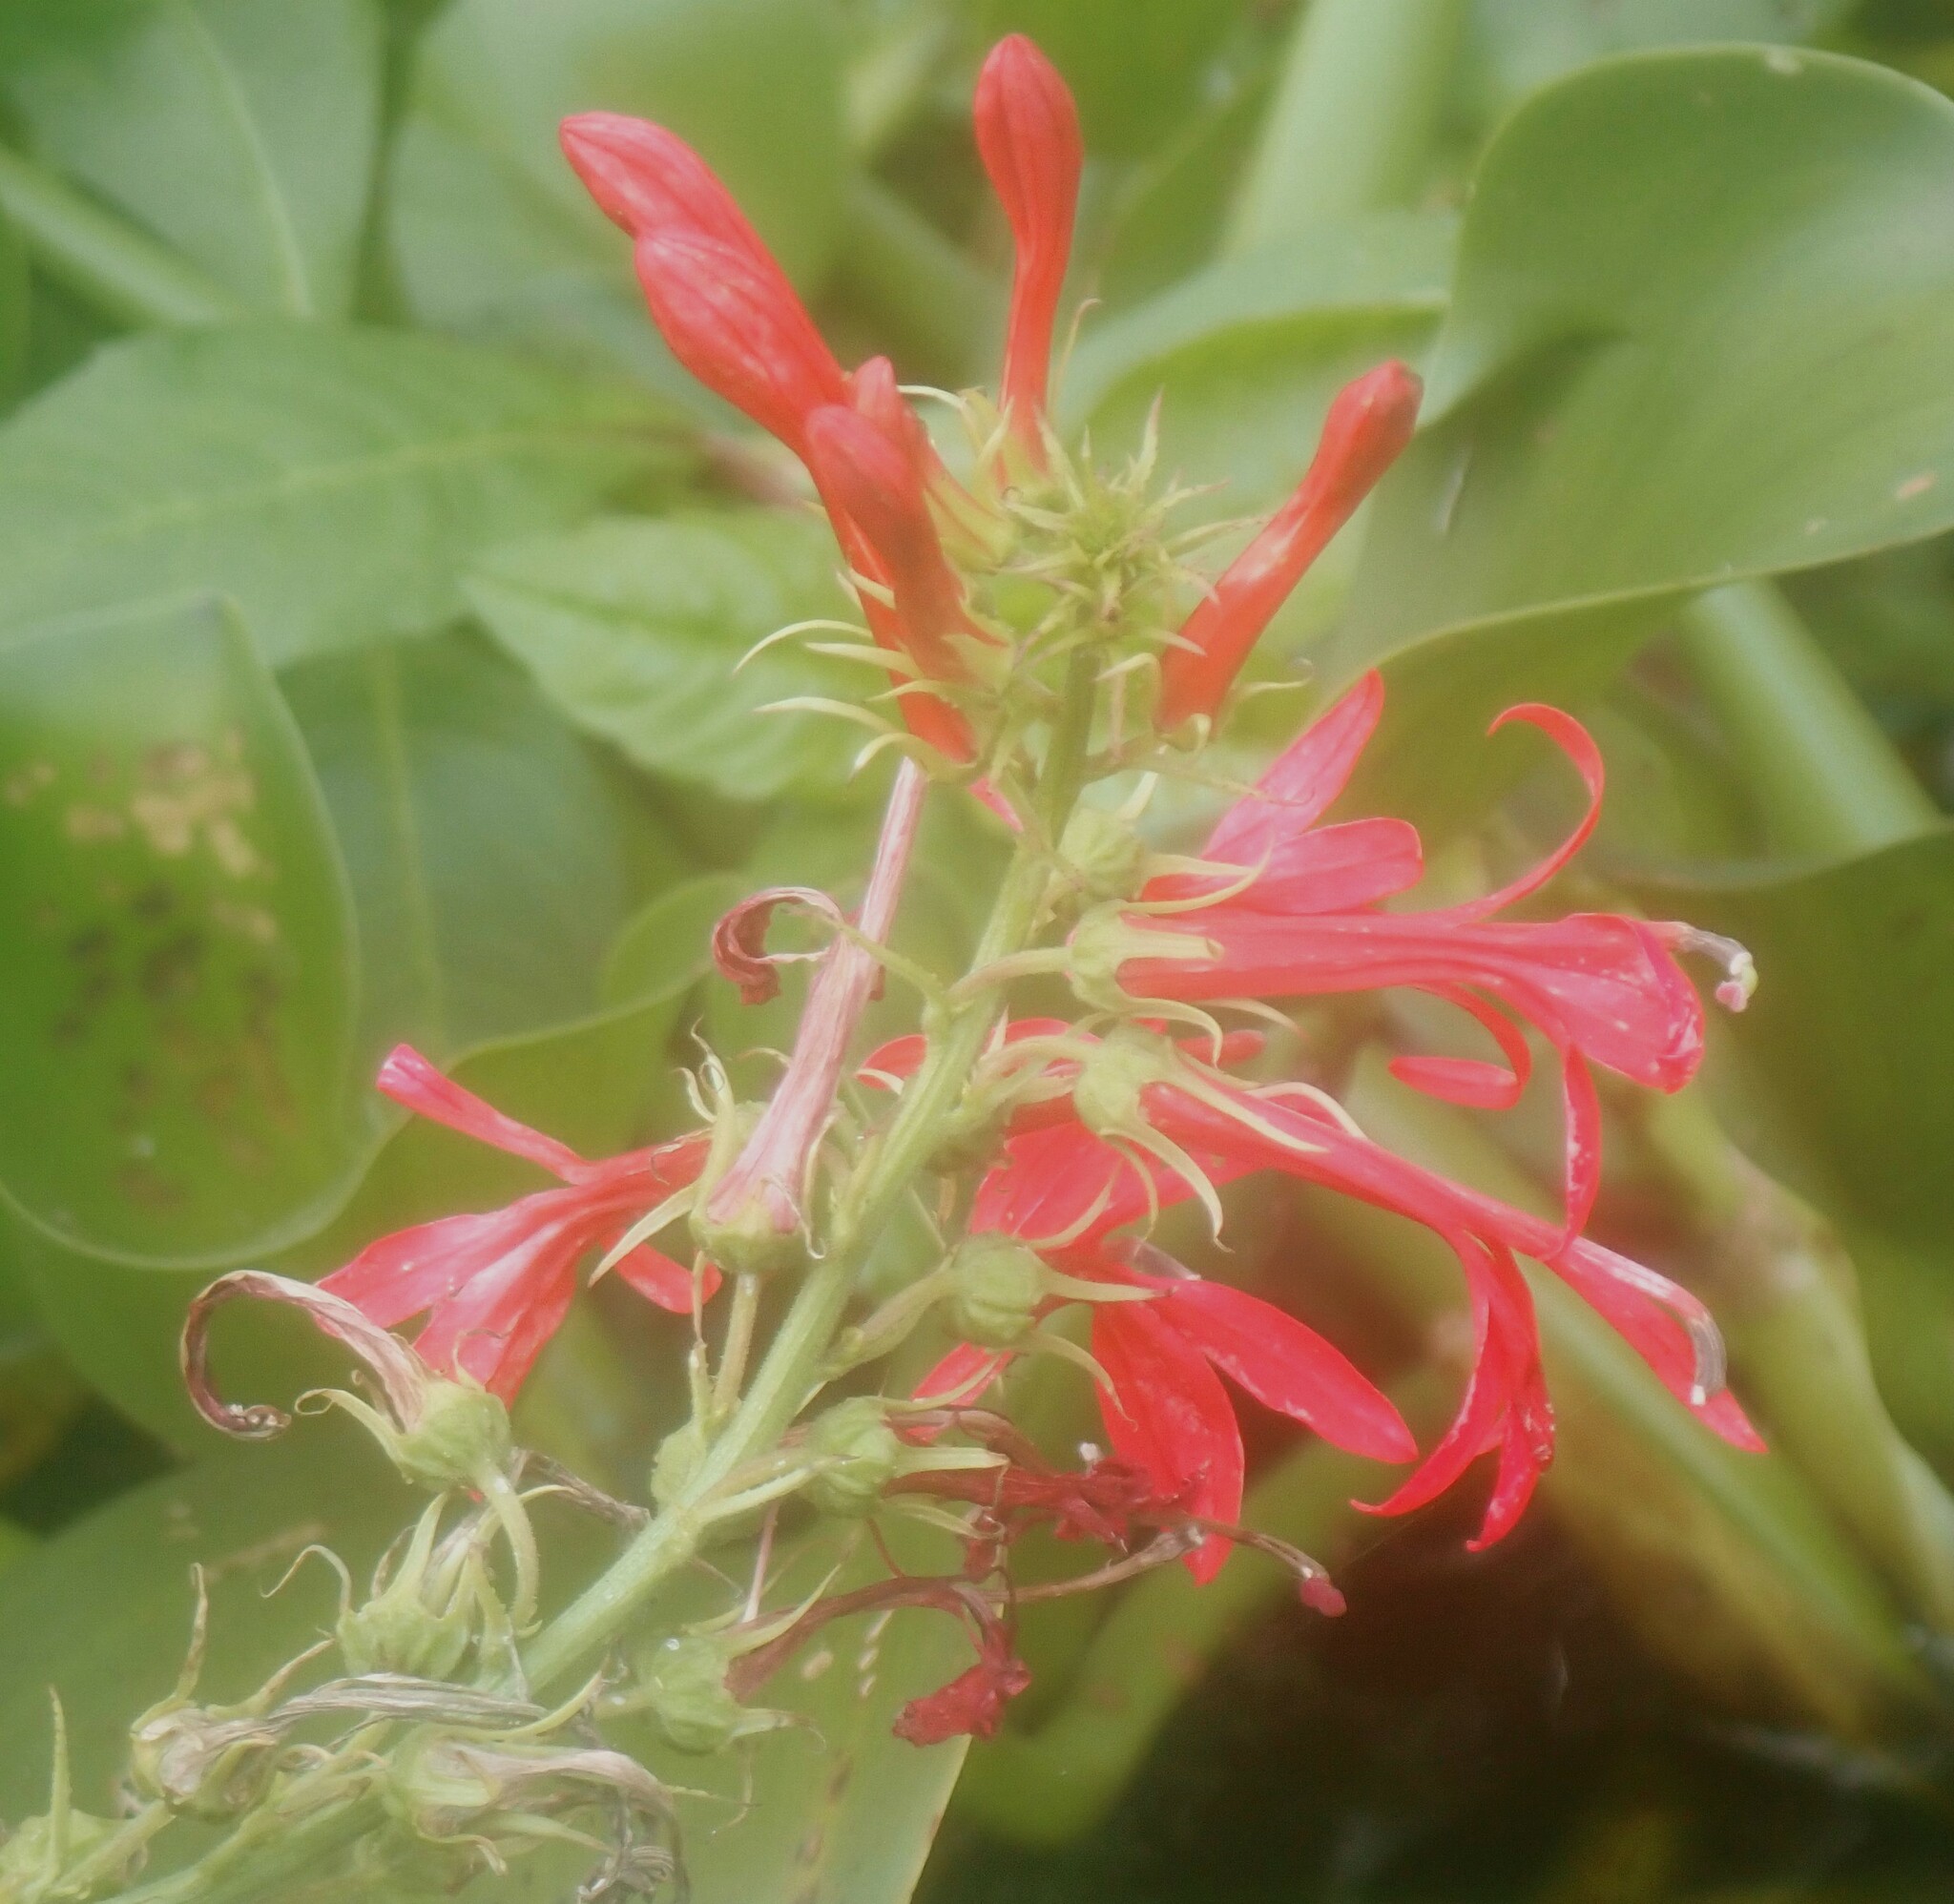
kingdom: Plantae
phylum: Tracheophyta
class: Magnoliopsida
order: Asterales
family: Campanulaceae
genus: Lobelia
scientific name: Lobelia cardinalis
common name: Cardinal flower
